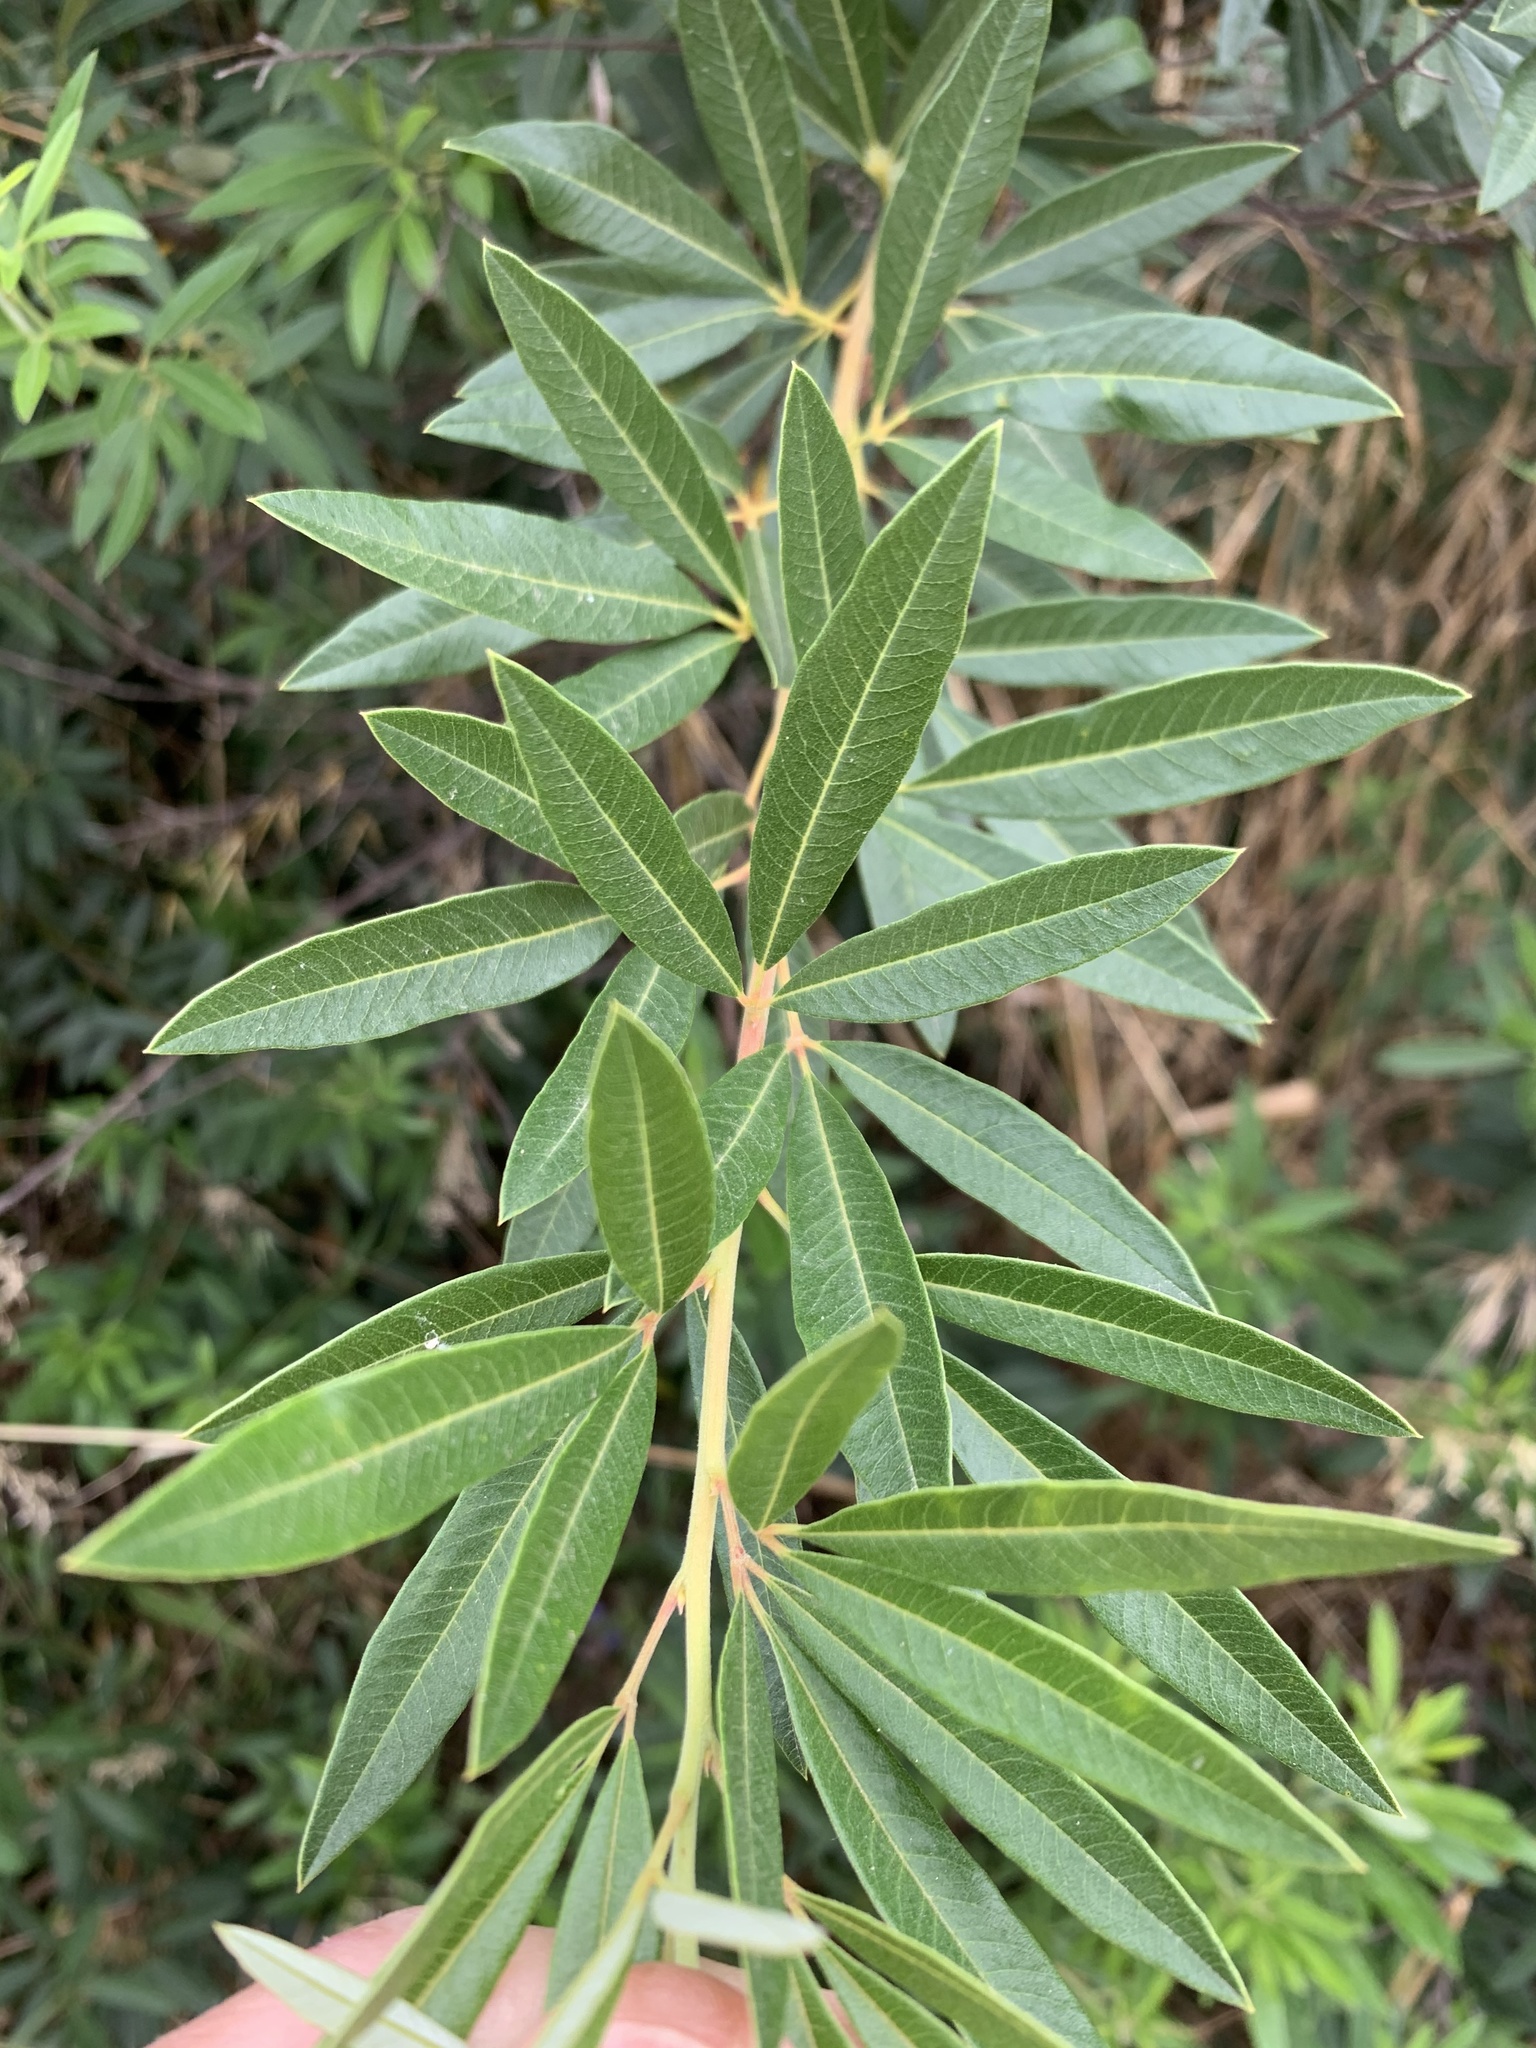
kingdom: Plantae
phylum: Tracheophyta
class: Magnoliopsida
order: Sapindales
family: Anacardiaceae
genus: Searsia
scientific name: Searsia angustifolia
